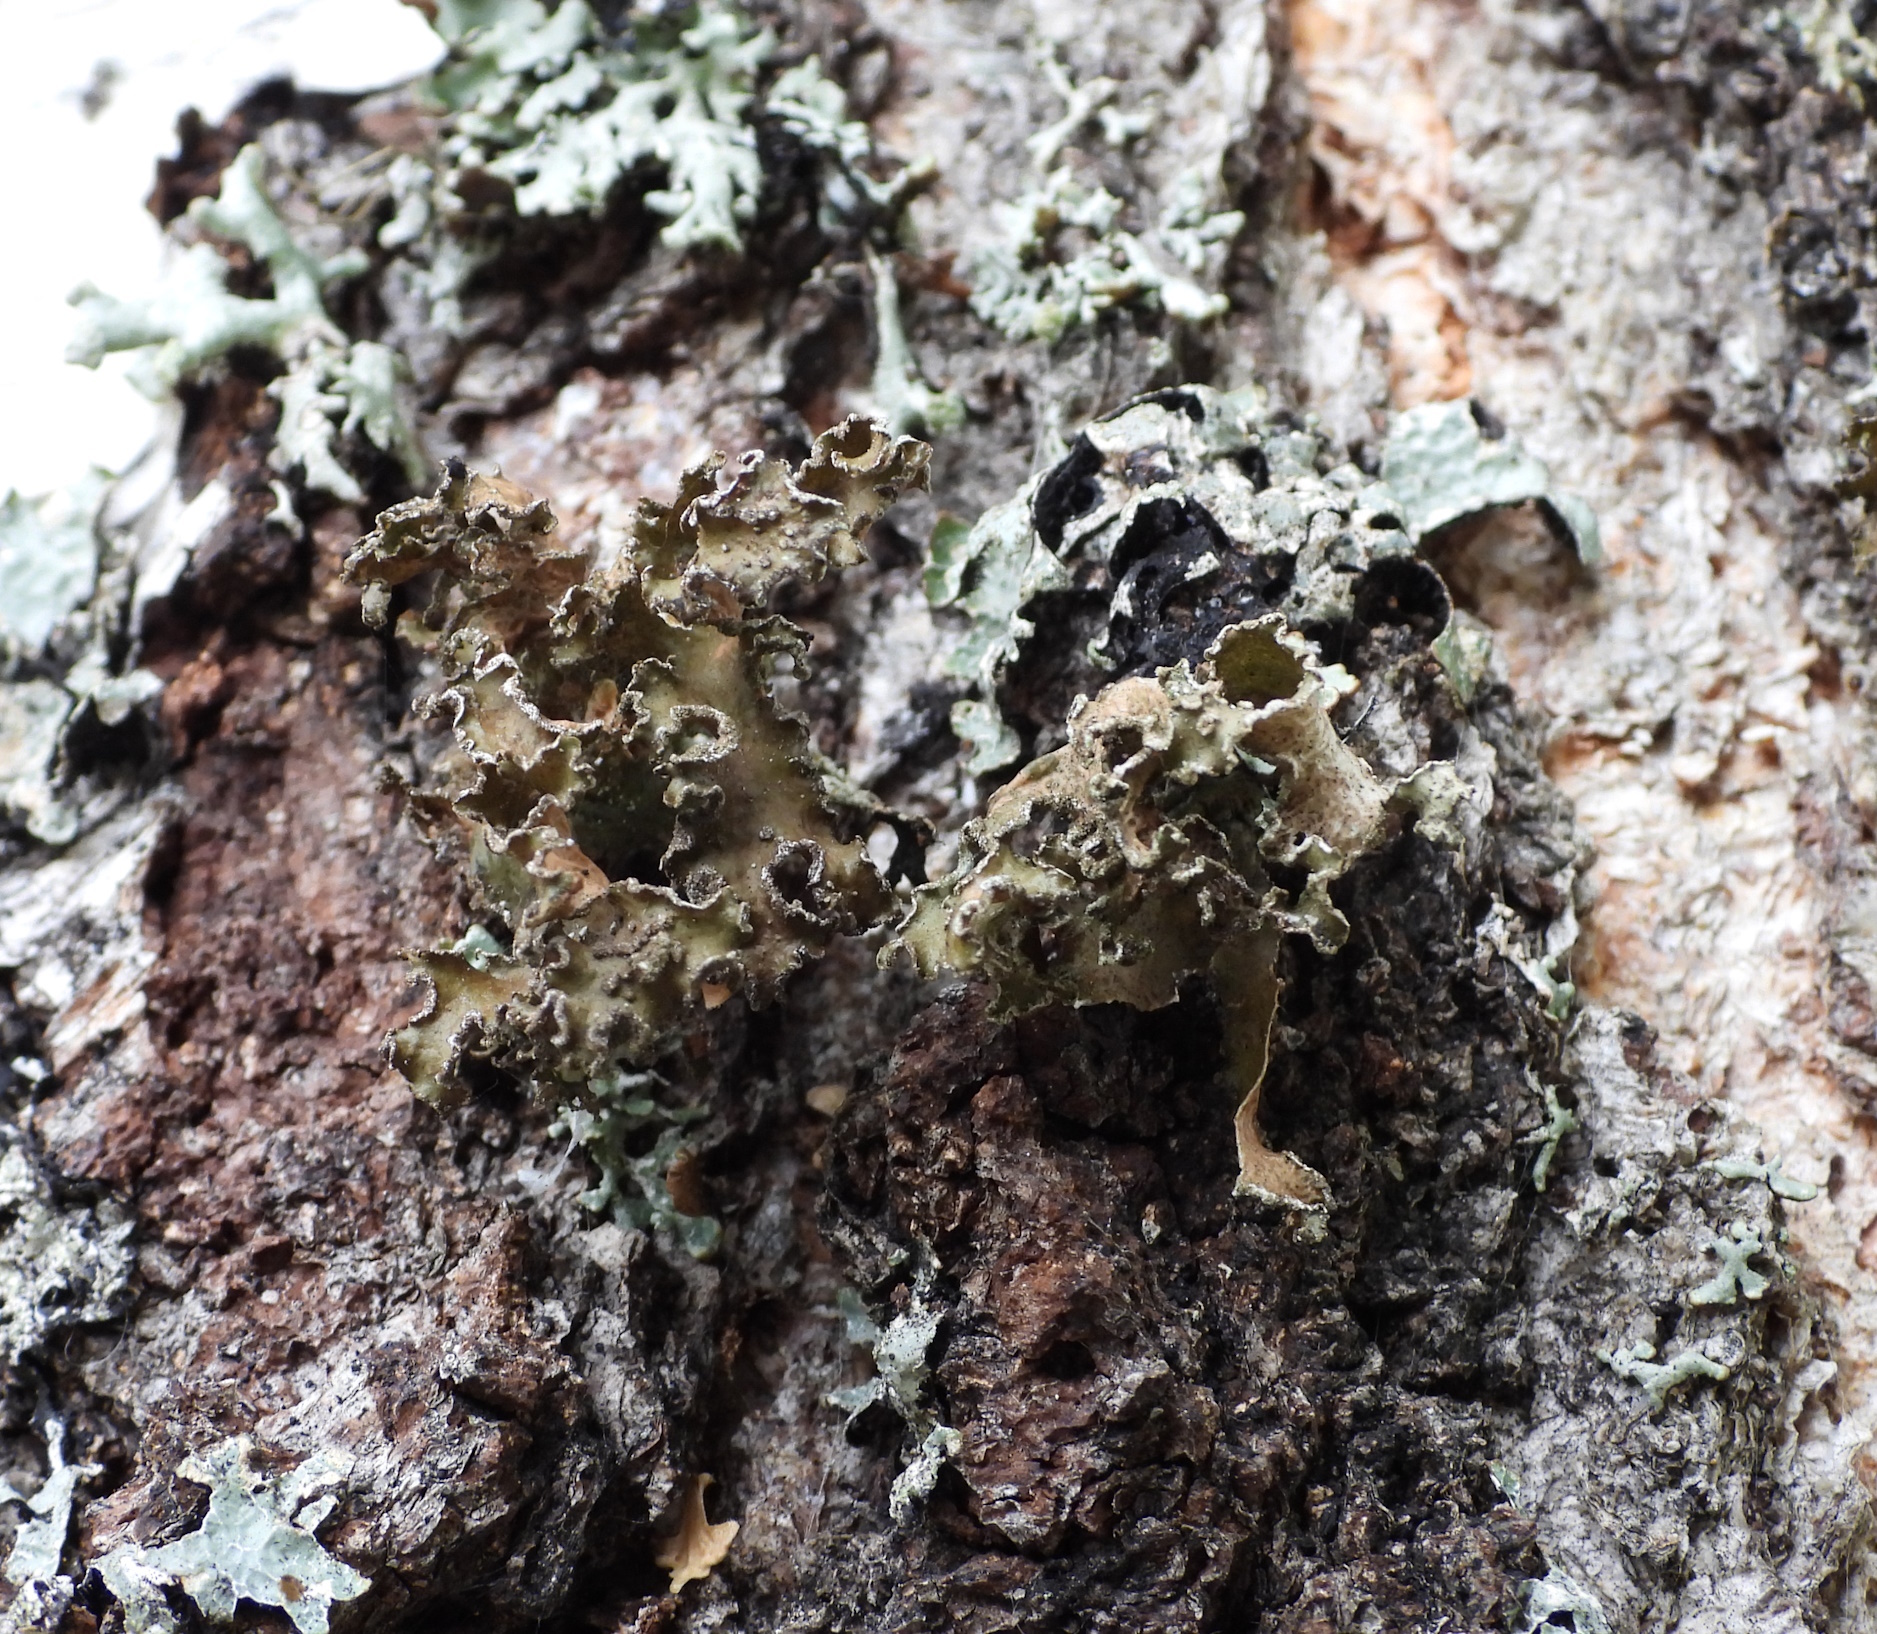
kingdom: Fungi
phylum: Ascomycota
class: Lecanoromycetes
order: Lecanorales
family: Parmeliaceae
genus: Nephromopsis
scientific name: Nephromopsis chlorophylla
